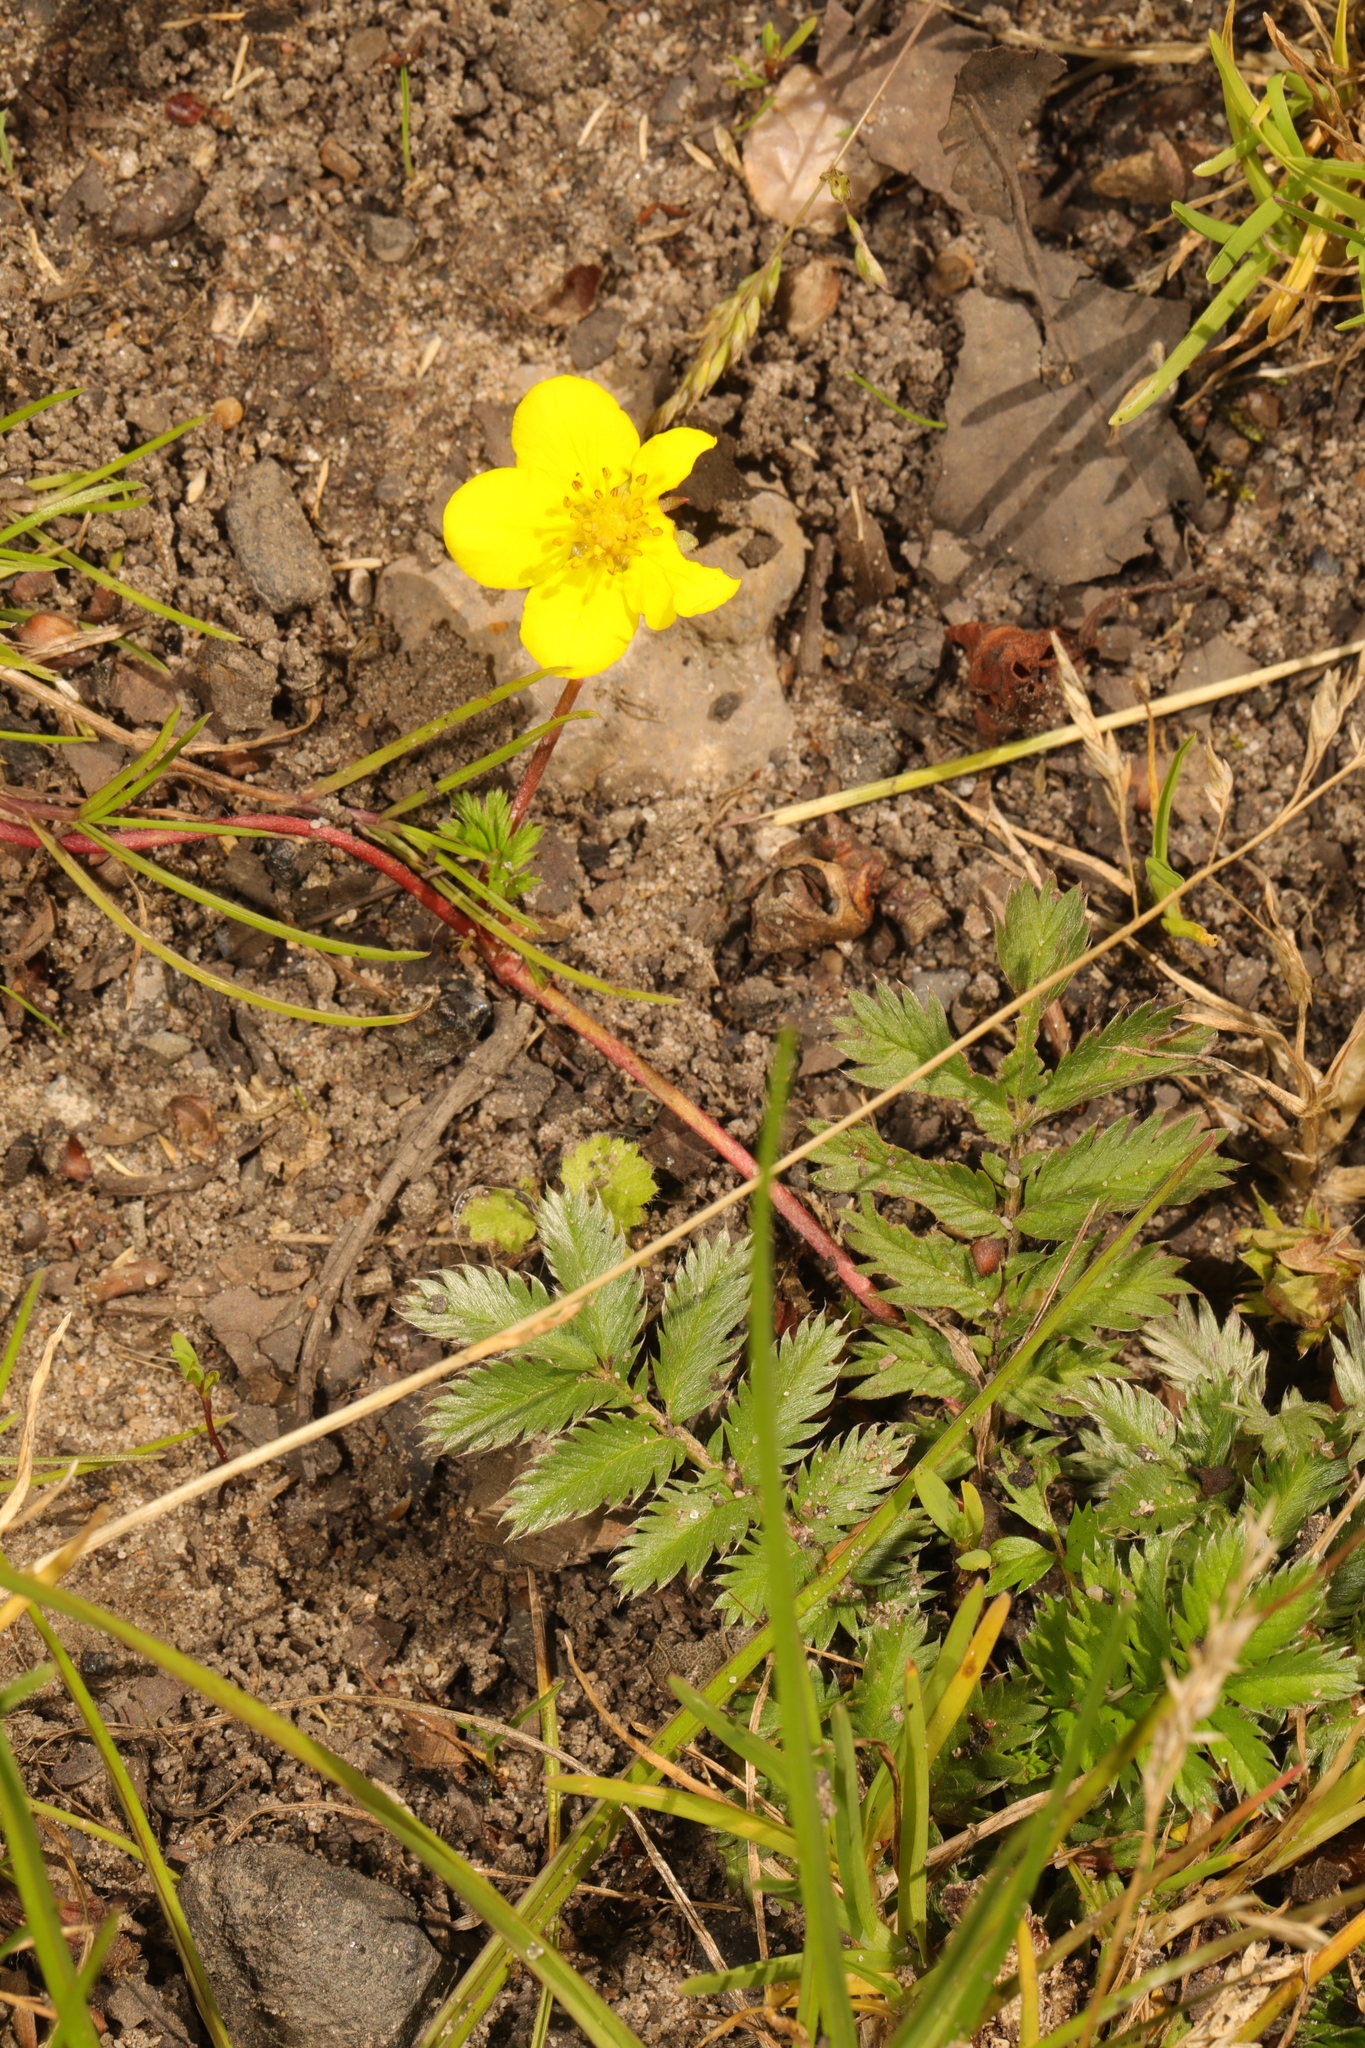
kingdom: Plantae
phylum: Tracheophyta
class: Magnoliopsida
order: Rosales
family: Rosaceae
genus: Argentina
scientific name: Argentina anserina
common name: Common silverweed
